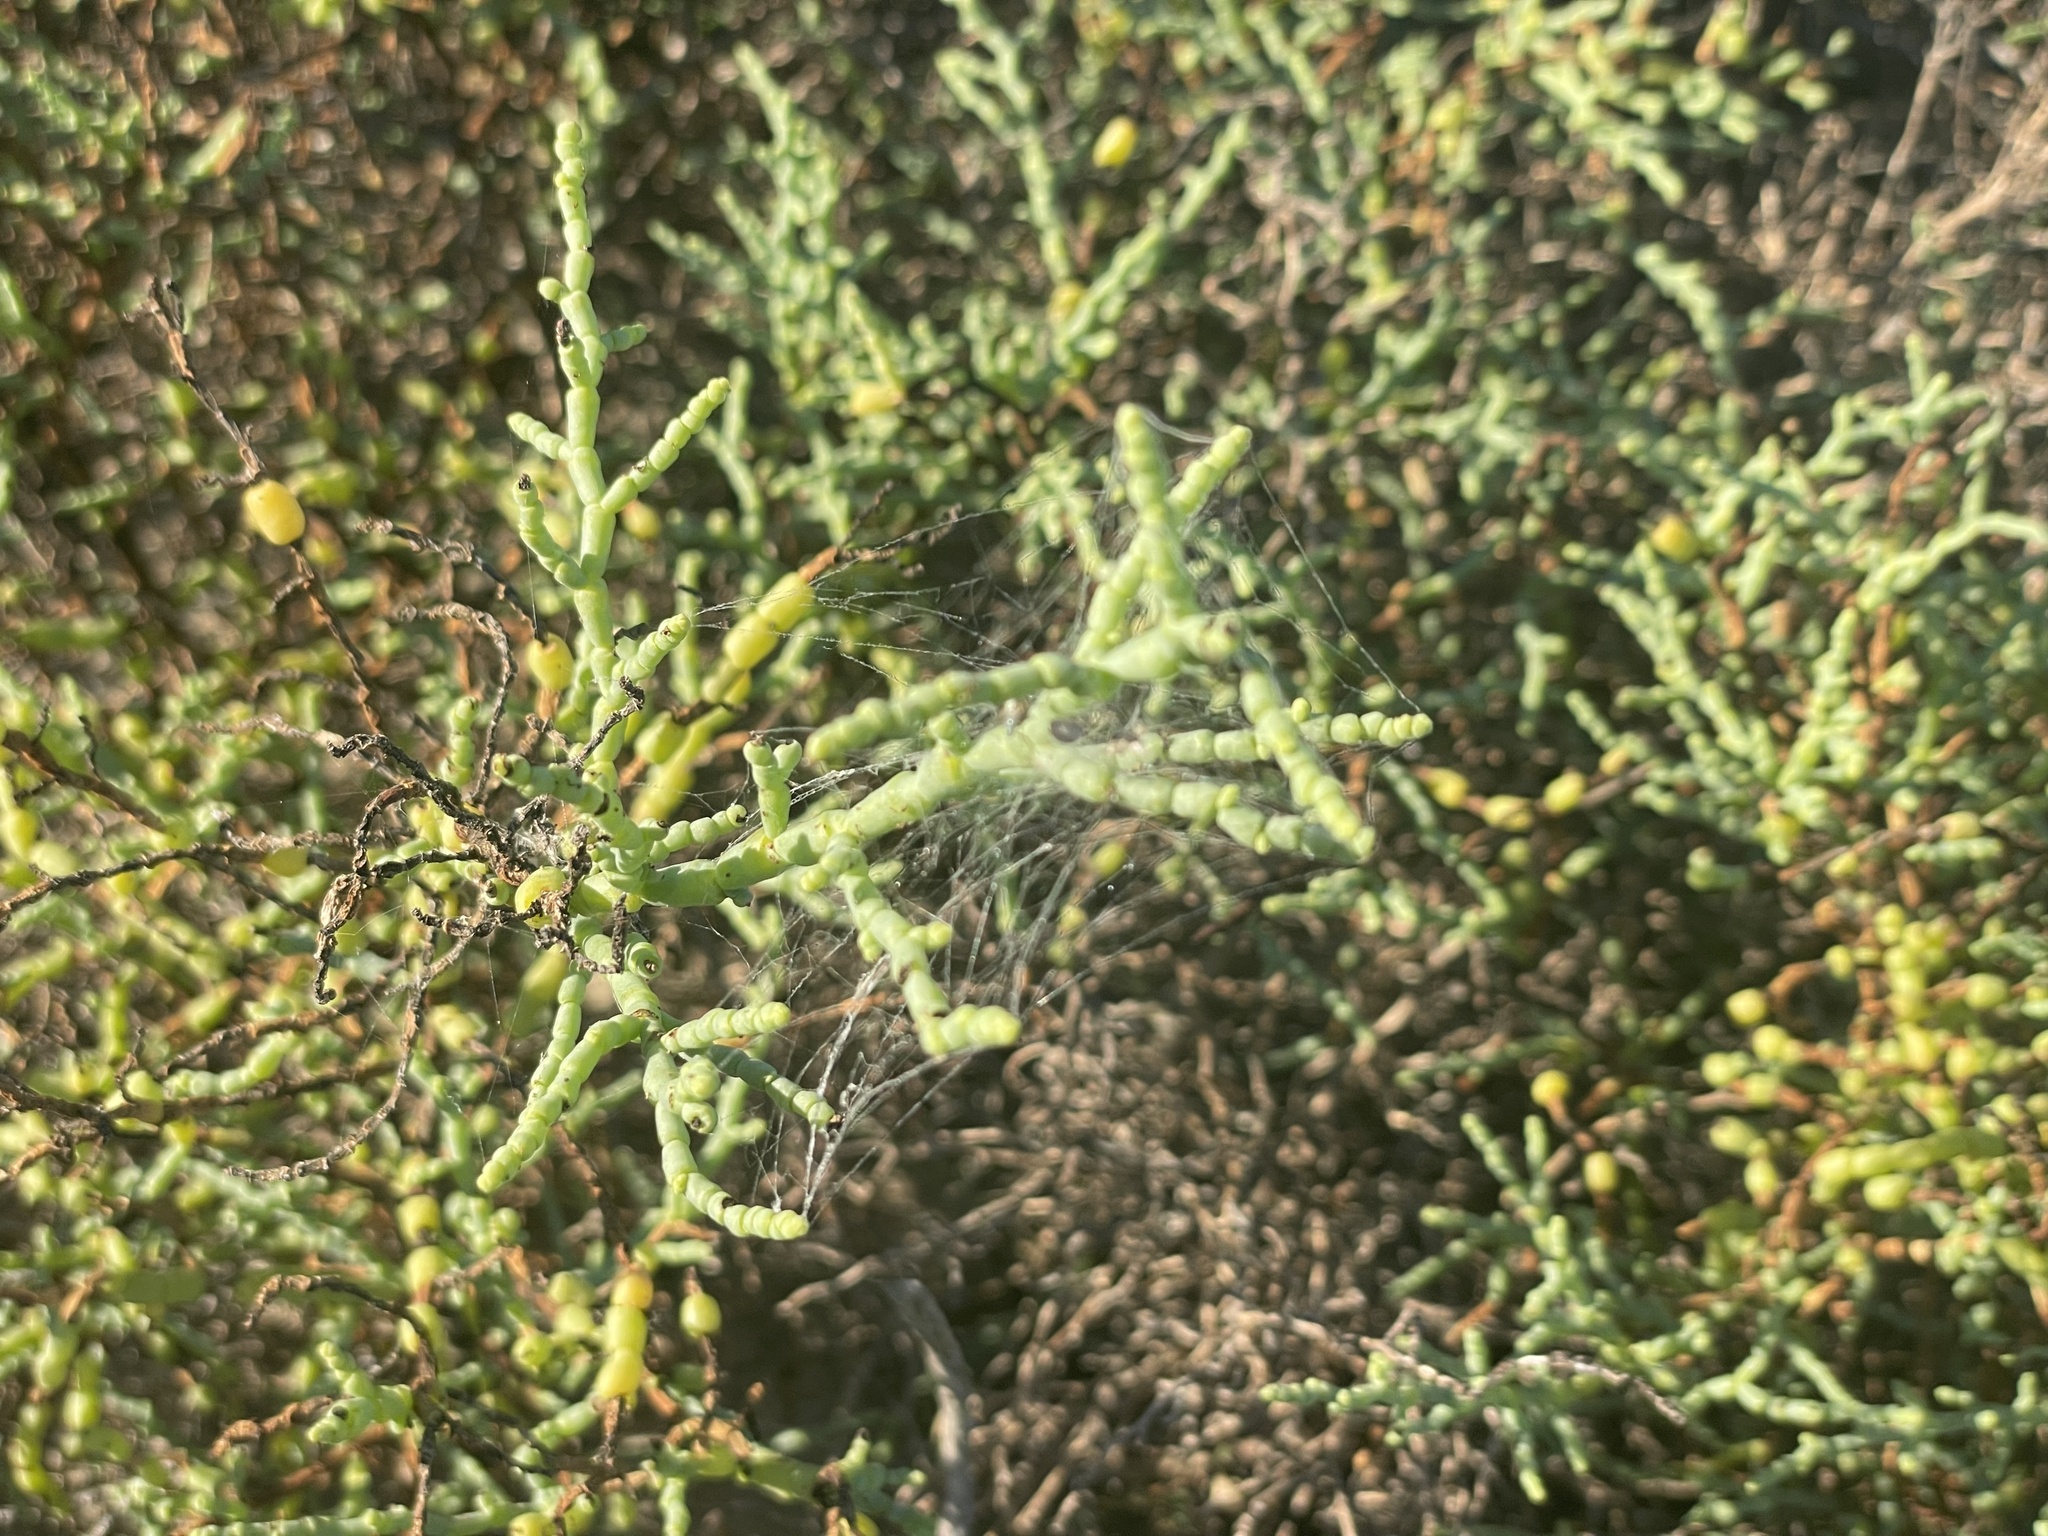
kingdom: Plantae
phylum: Tracheophyta
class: Magnoliopsida
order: Caryophyllales
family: Amaranthaceae
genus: Allenrolfea
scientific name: Allenrolfea occidentalis
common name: Iodine-bush
